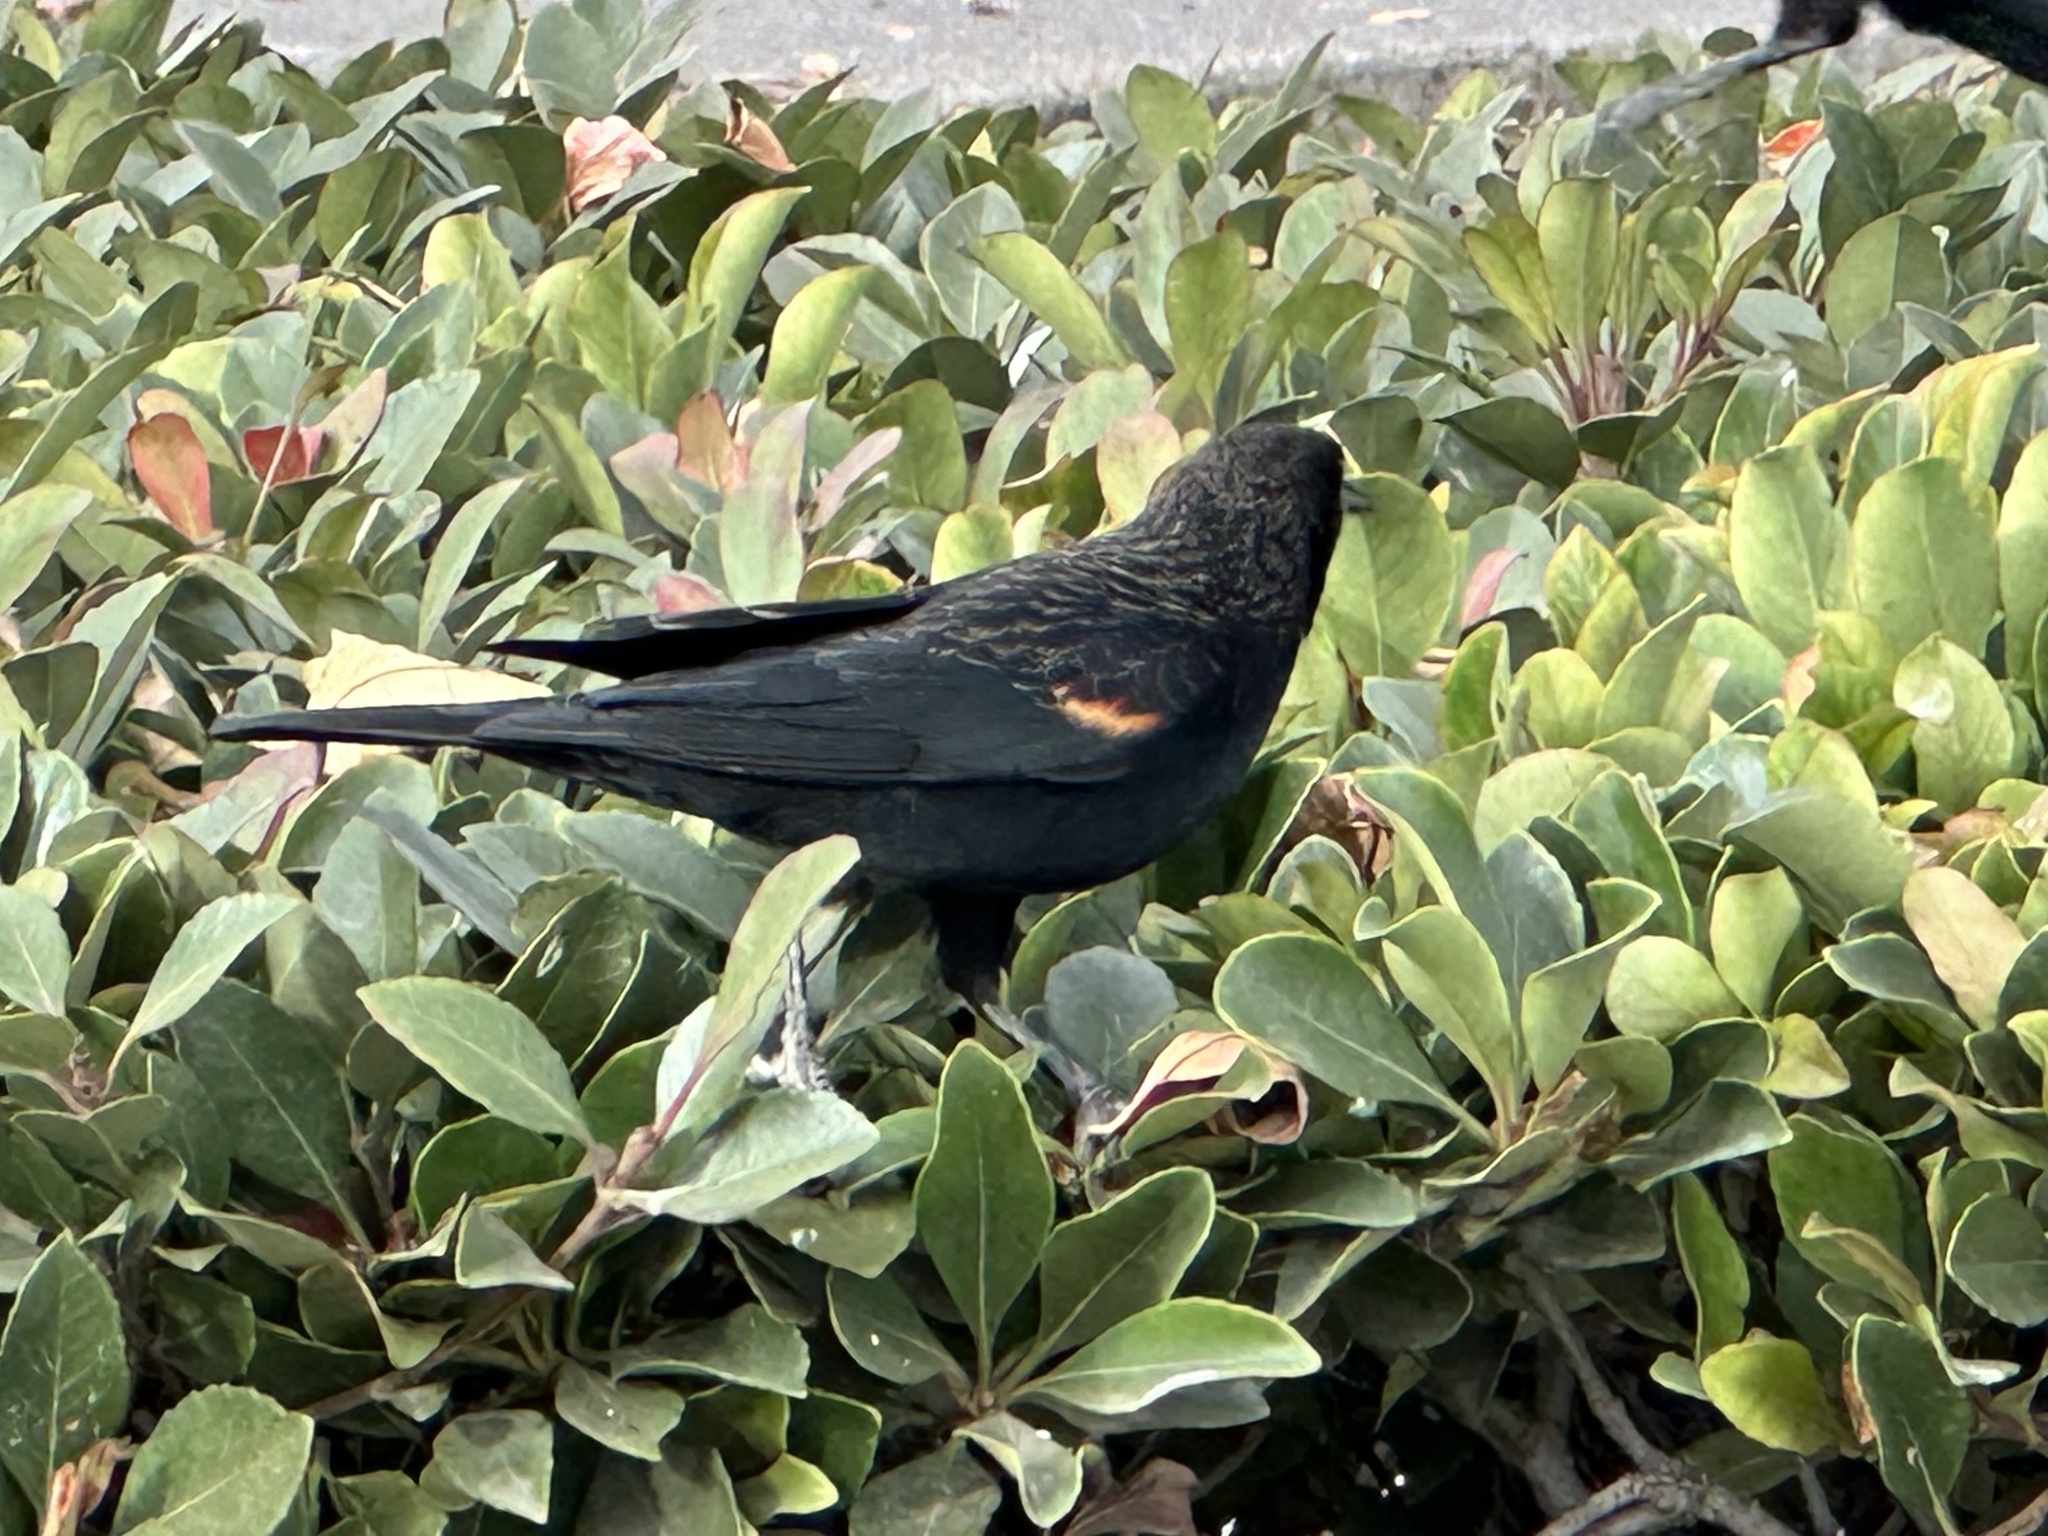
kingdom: Animalia
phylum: Chordata
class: Aves
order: Passeriformes
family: Icteridae
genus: Agelaius
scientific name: Agelaius phoeniceus
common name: Red-winged blackbird
